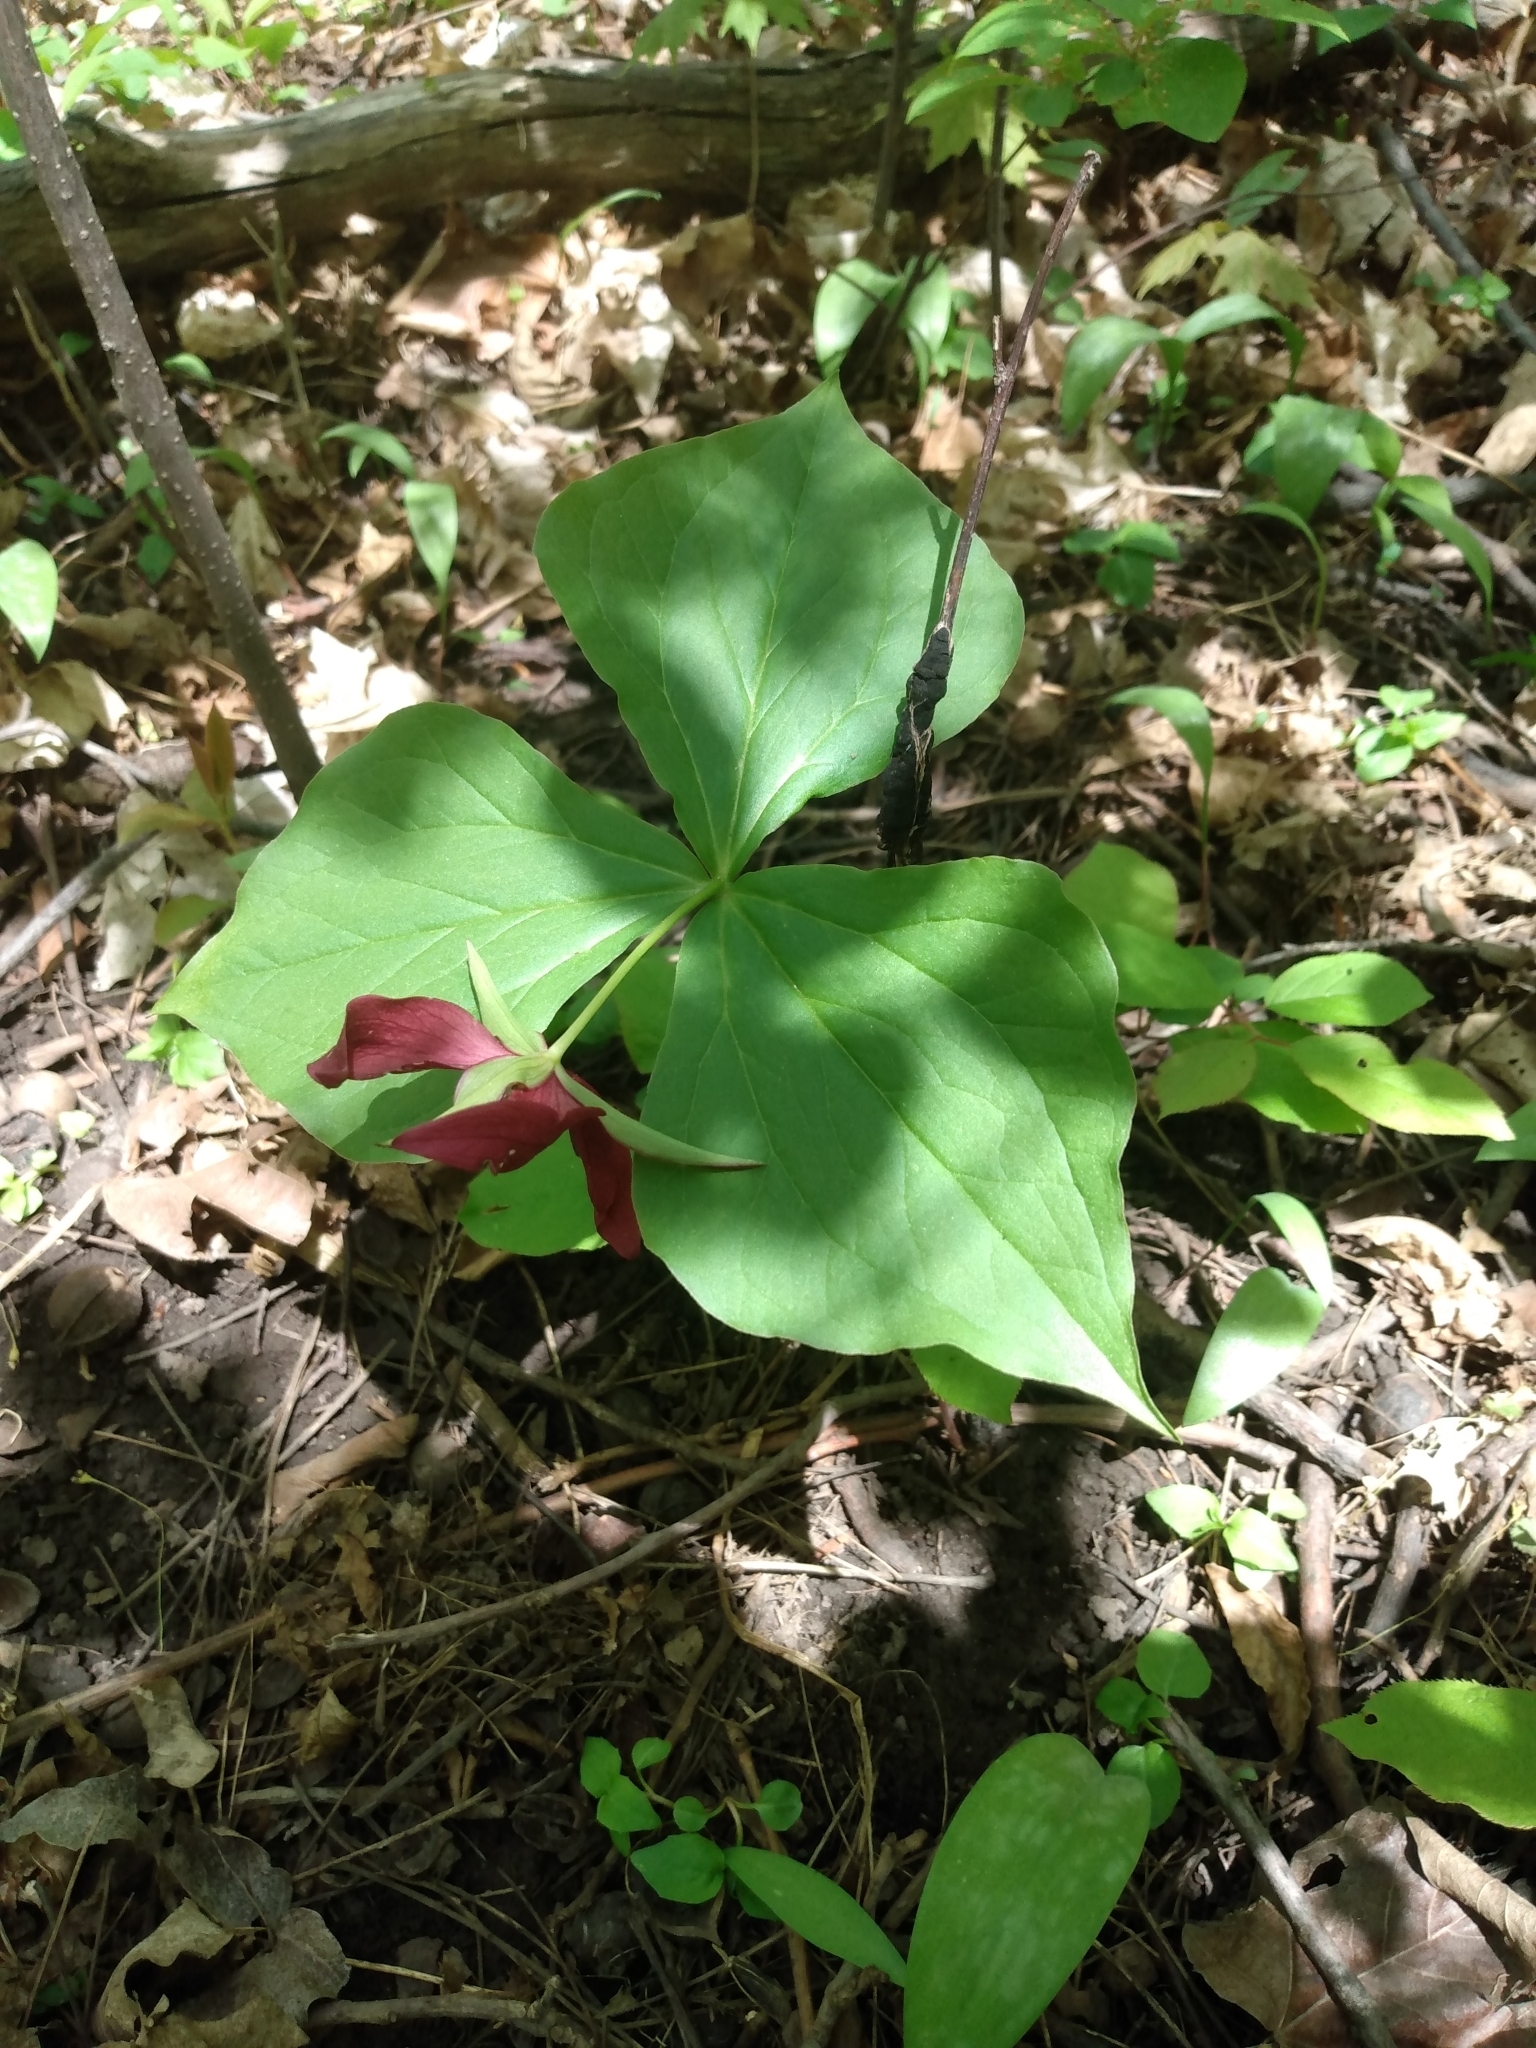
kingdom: Plantae
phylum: Tracheophyta
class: Liliopsida
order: Liliales
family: Melanthiaceae
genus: Trillium
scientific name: Trillium erectum
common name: Purple trillium
